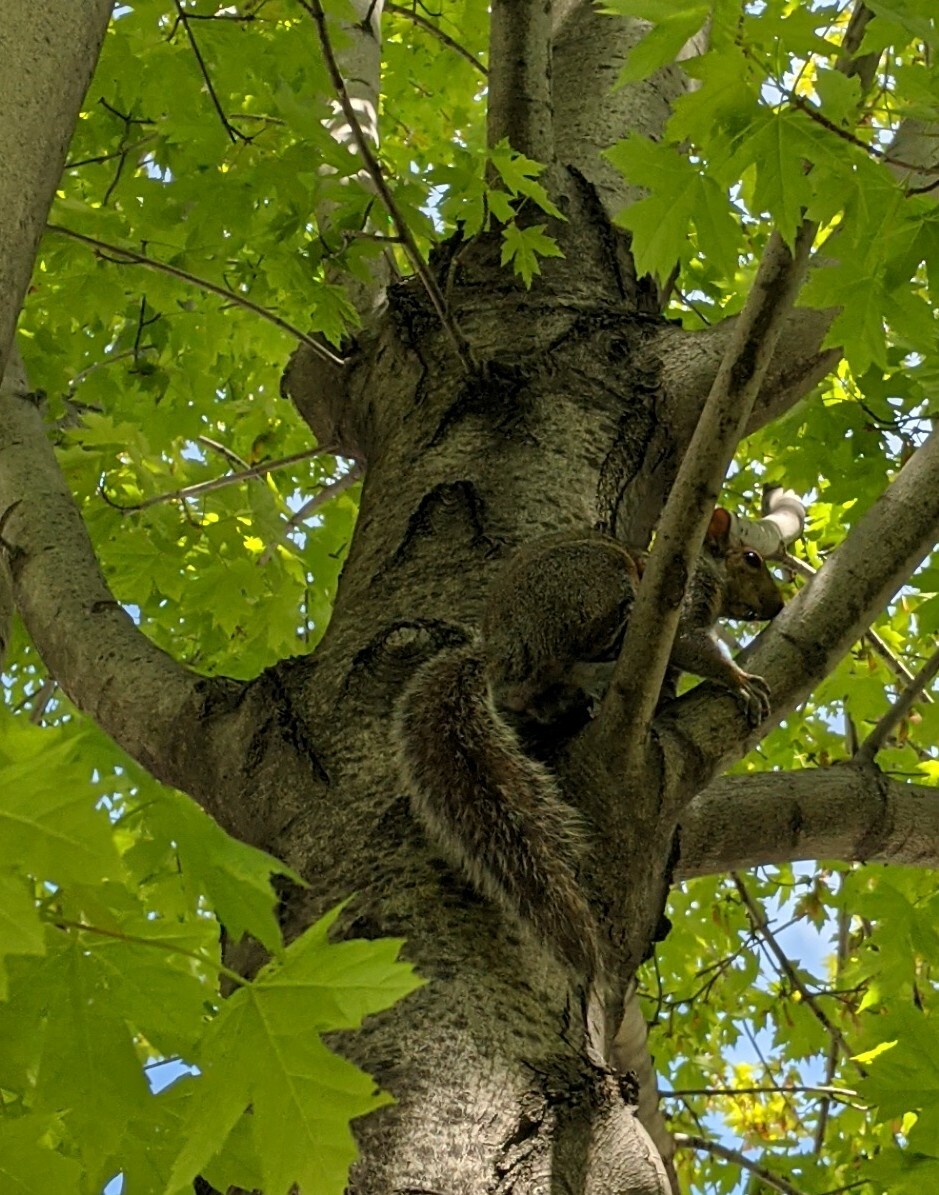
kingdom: Animalia
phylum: Chordata
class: Mammalia
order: Rodentia
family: Sciuridae
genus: Sciurus
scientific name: Sciurus carolinensis
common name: Eastern gray squirrel
